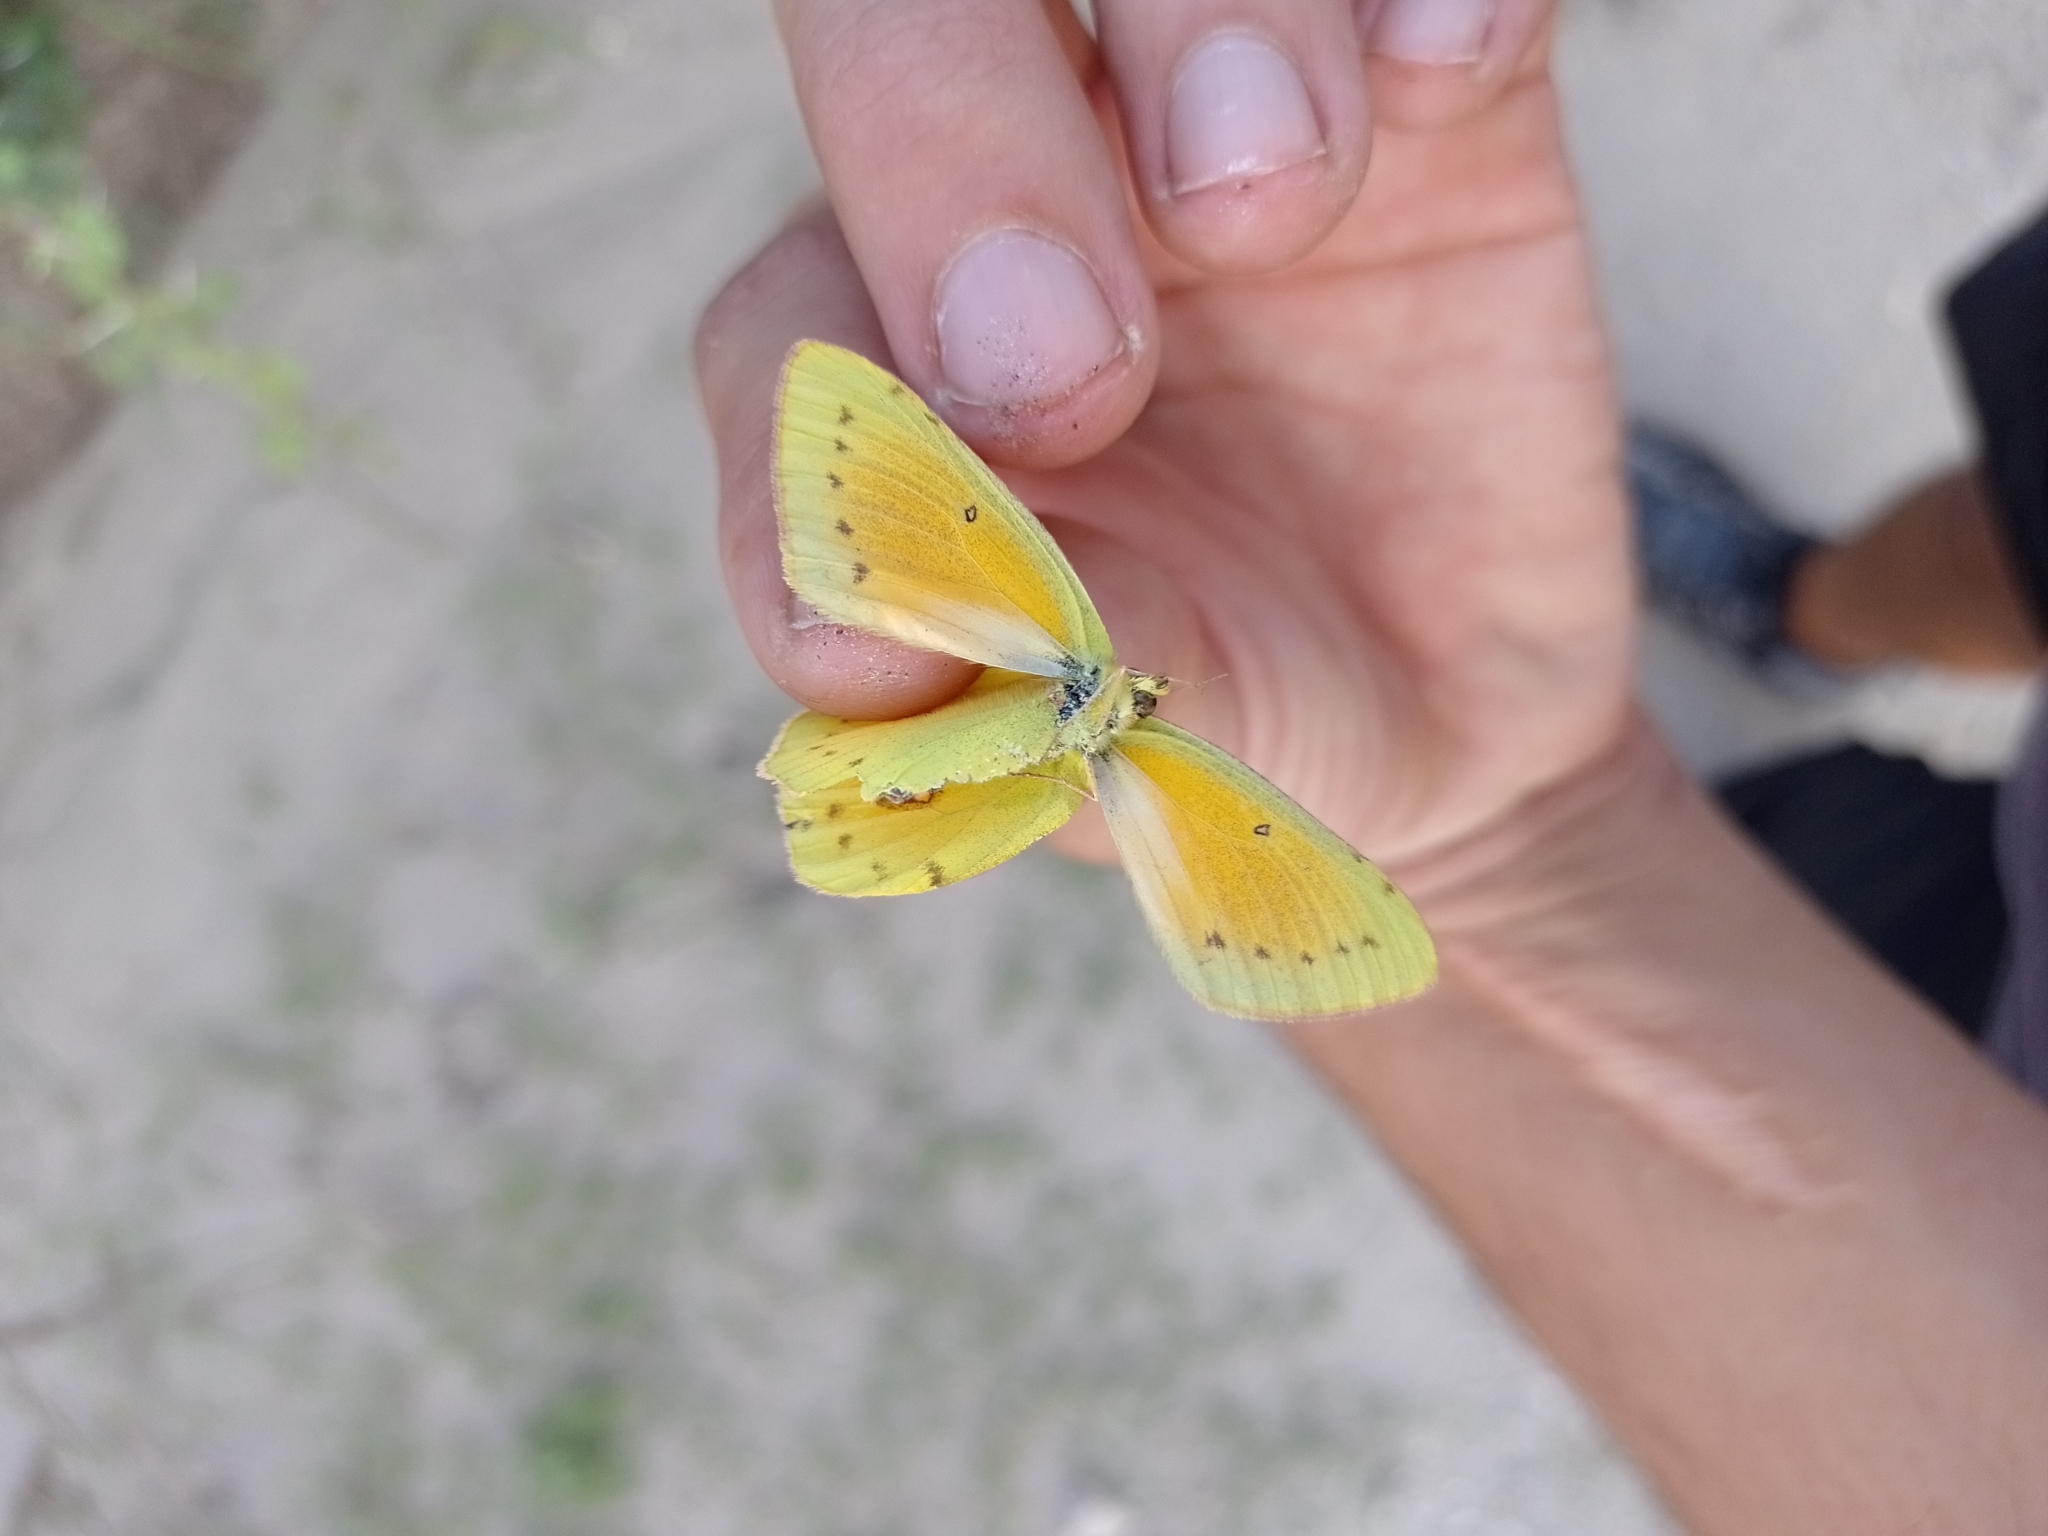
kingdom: Animalia
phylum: Arthropoda
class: Insecta
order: Lepidoptera
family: Pieridae
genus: Colias
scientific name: Colias lesbia
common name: Lesbia clouded yellow
